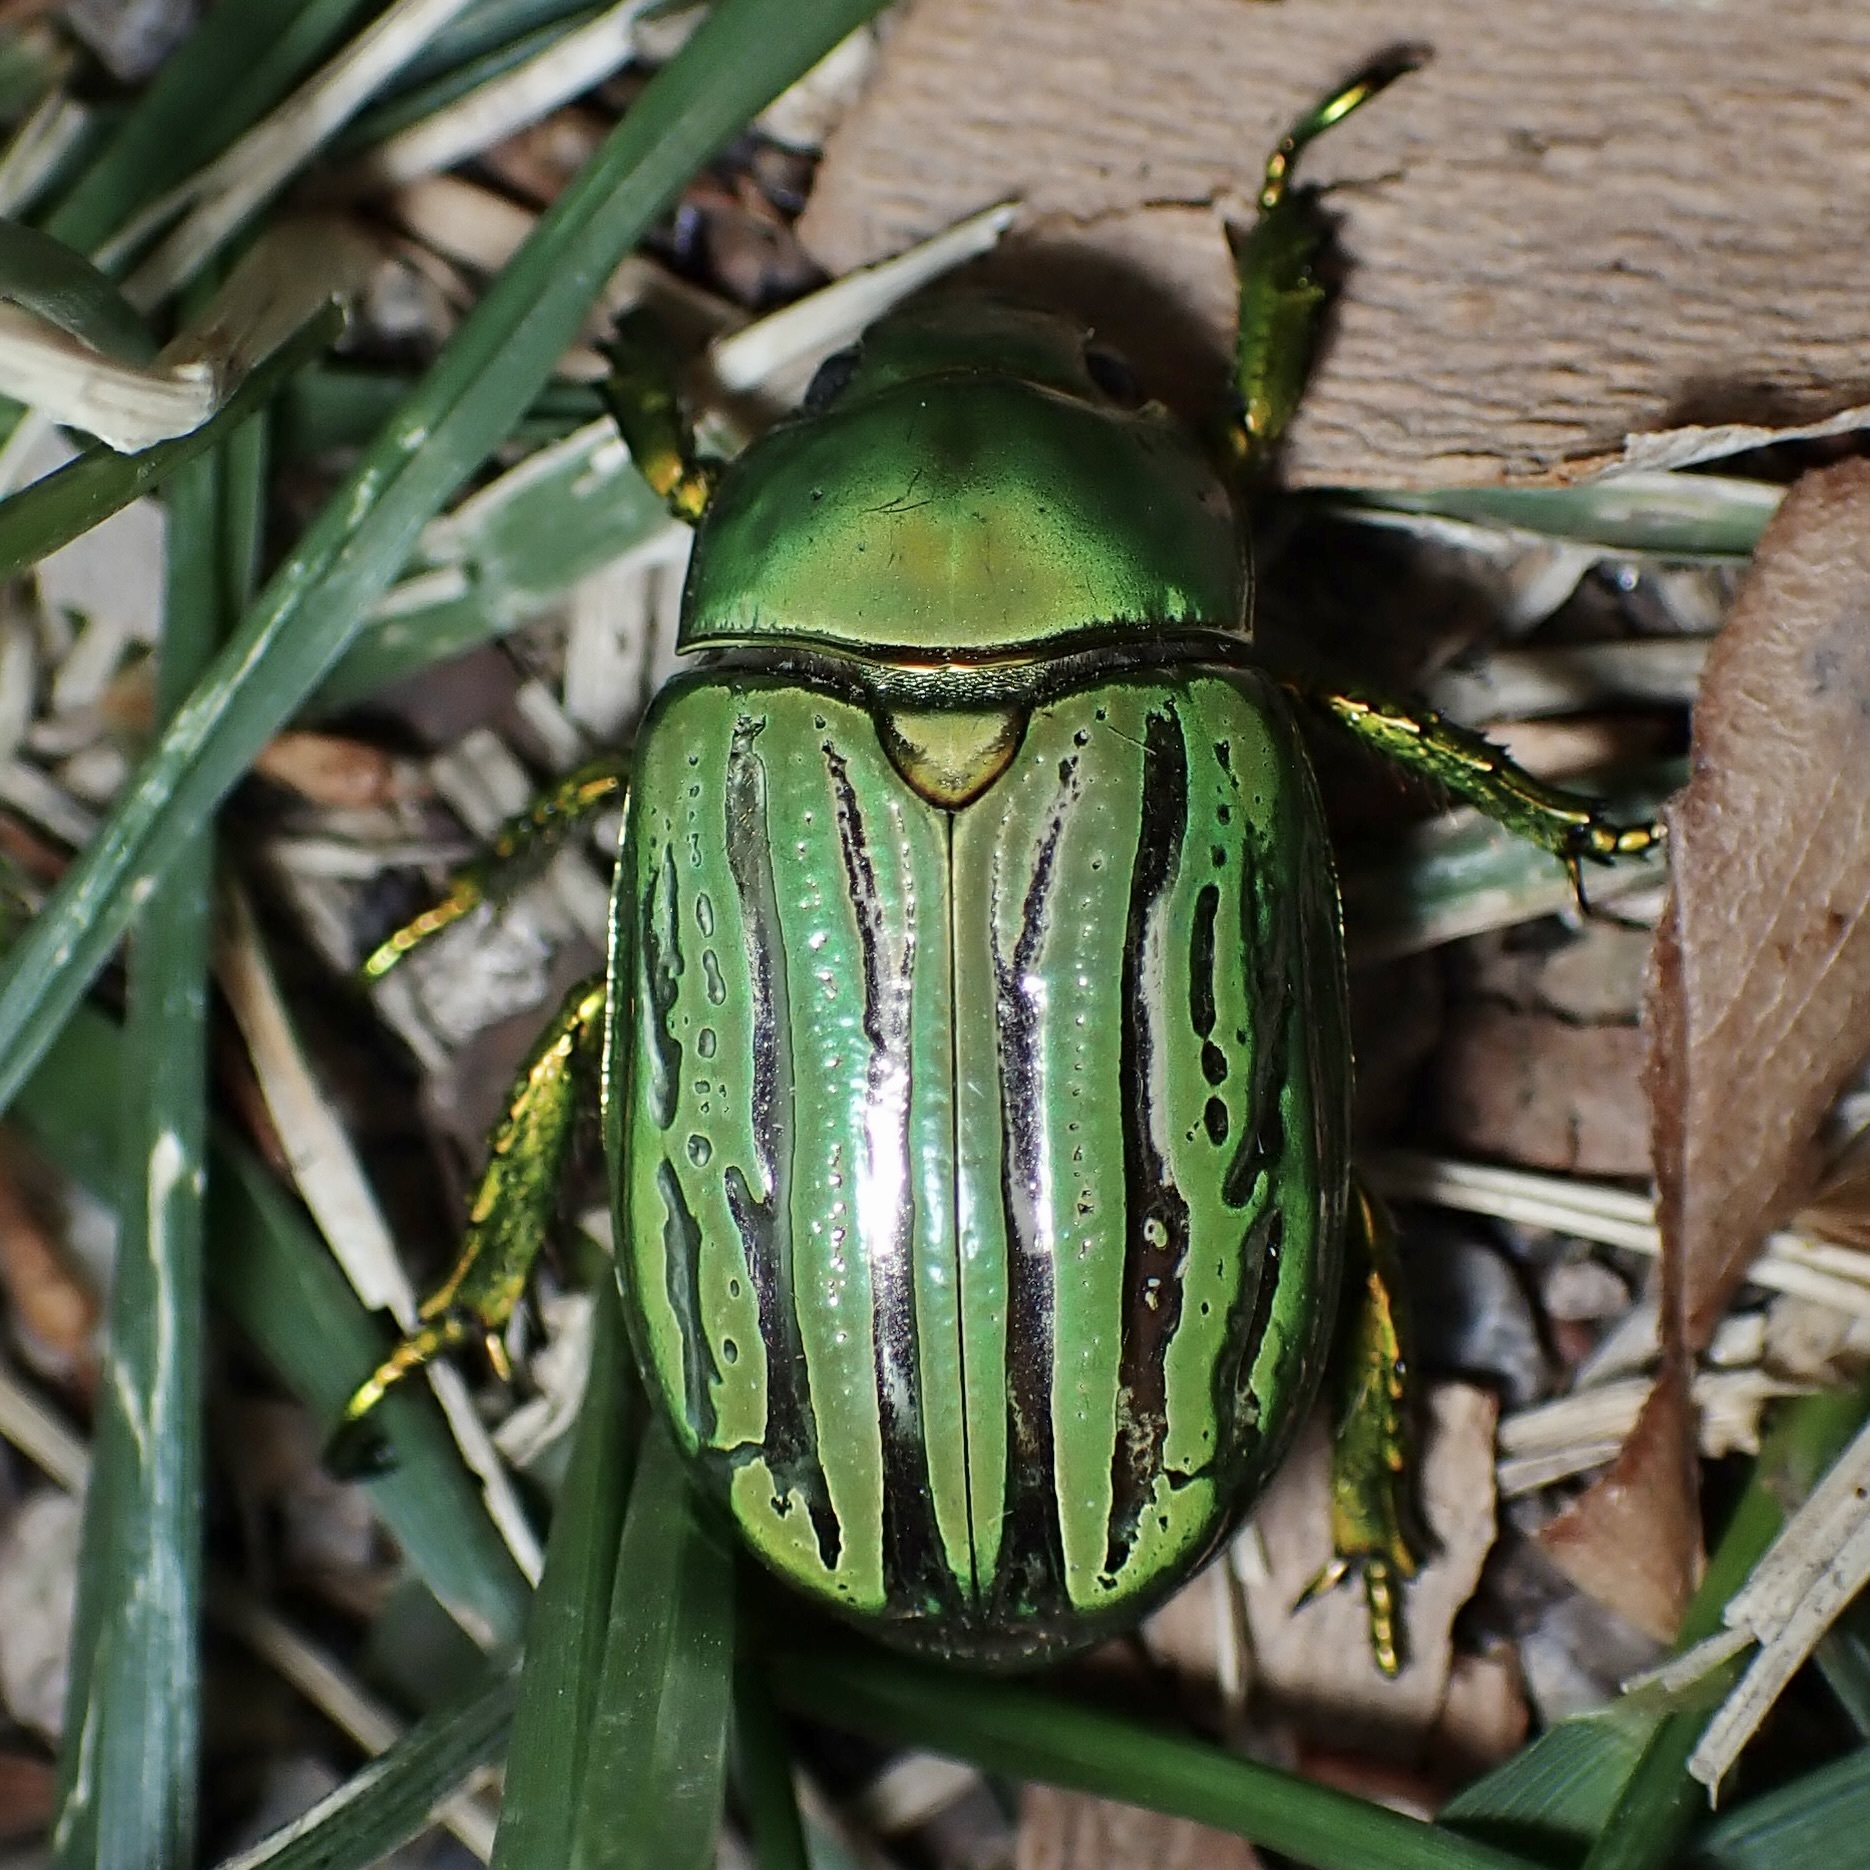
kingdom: Animalia
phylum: Arthropoda
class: Insecta
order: Coleoptera
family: Scarabaeidae
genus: Chrysina
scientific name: Chrysina gloriosa
